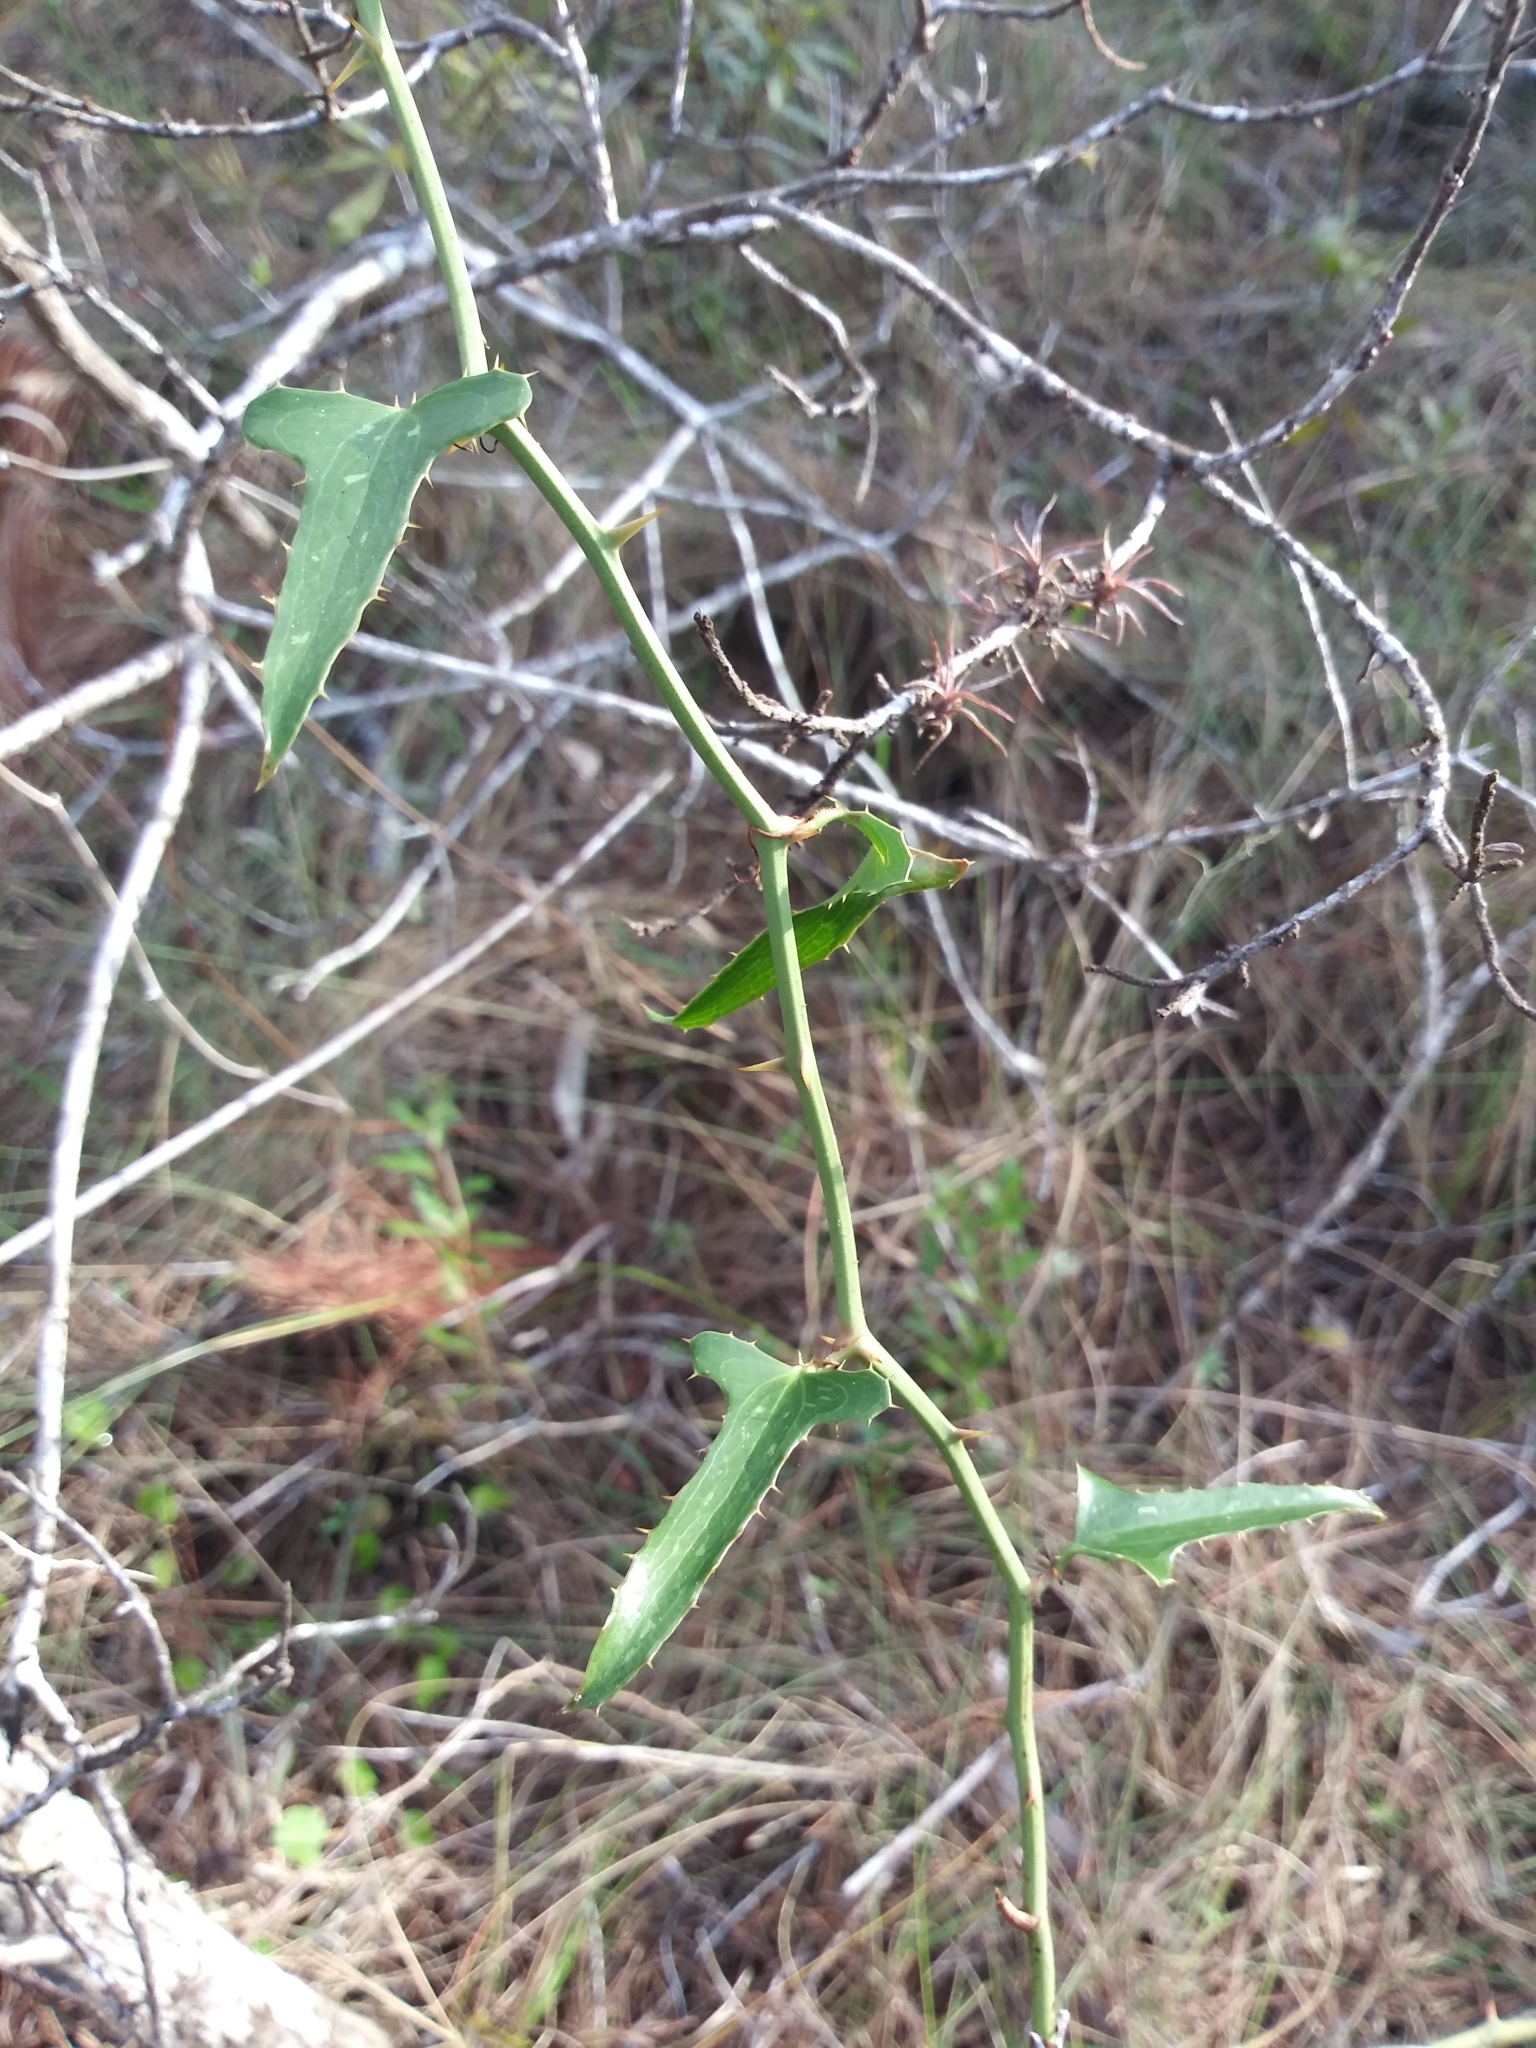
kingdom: Plantae
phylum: Tracheophyta
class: Liliopsida
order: Liliales
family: Smilacaceae
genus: Smilax
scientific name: Smilax bona-nox
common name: Catbrier
